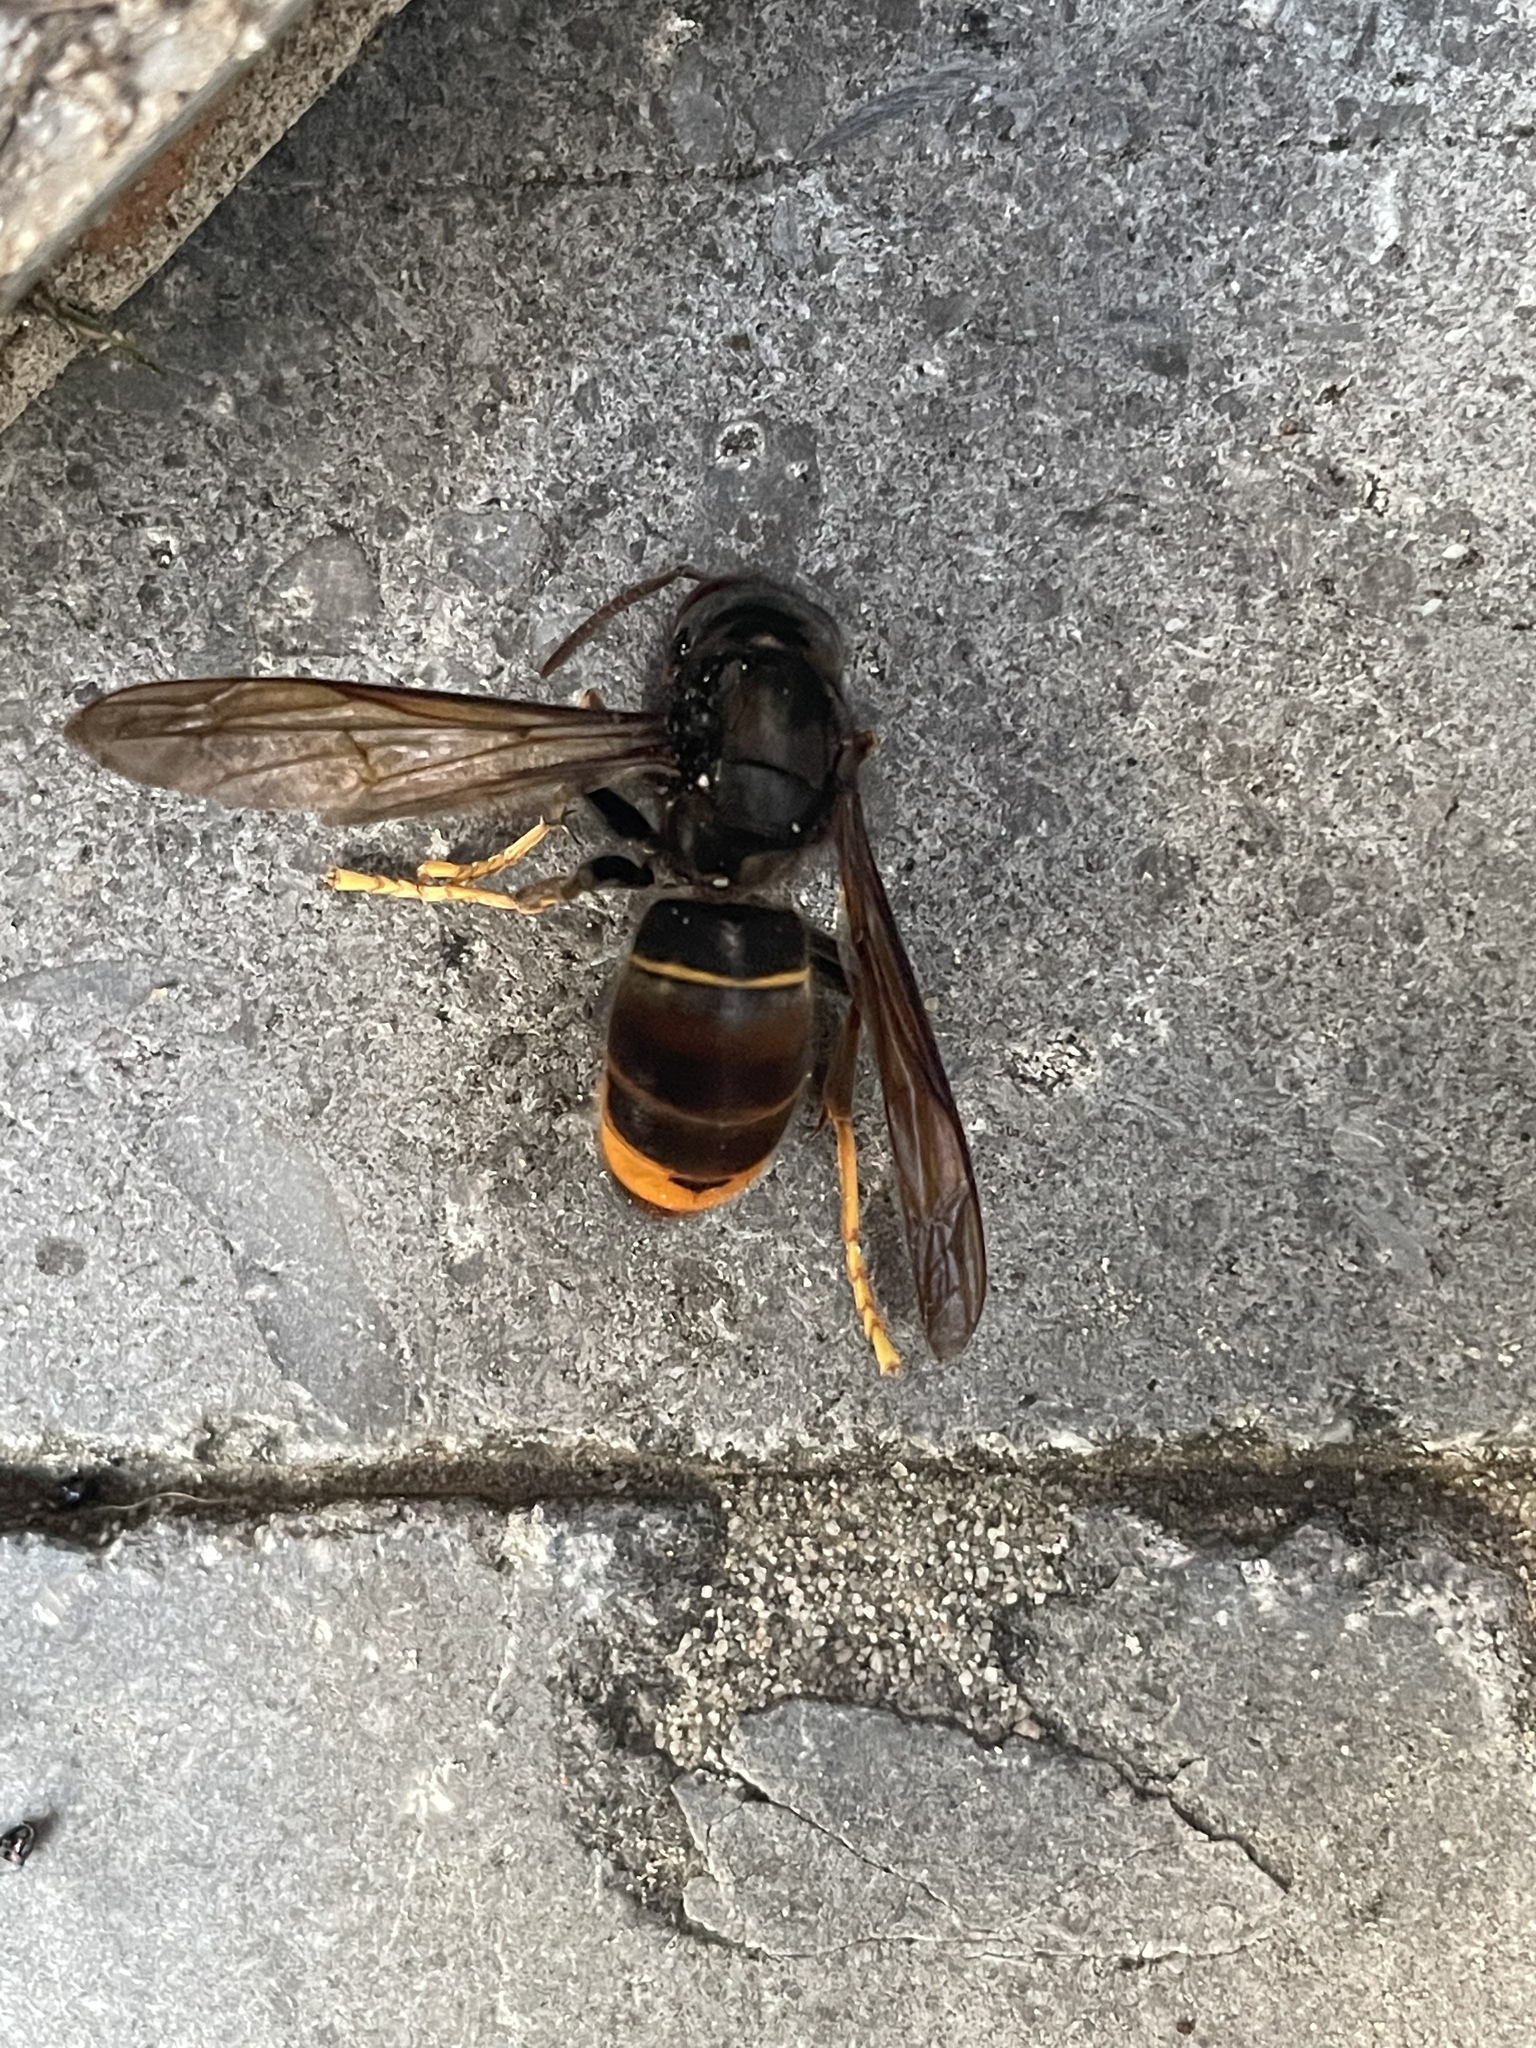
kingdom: Animalia
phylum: Arthropoda
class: Insecta
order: Hymenoptera
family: Vespidae
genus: Vespa
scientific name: Vespa velutina
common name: Asian hornet
